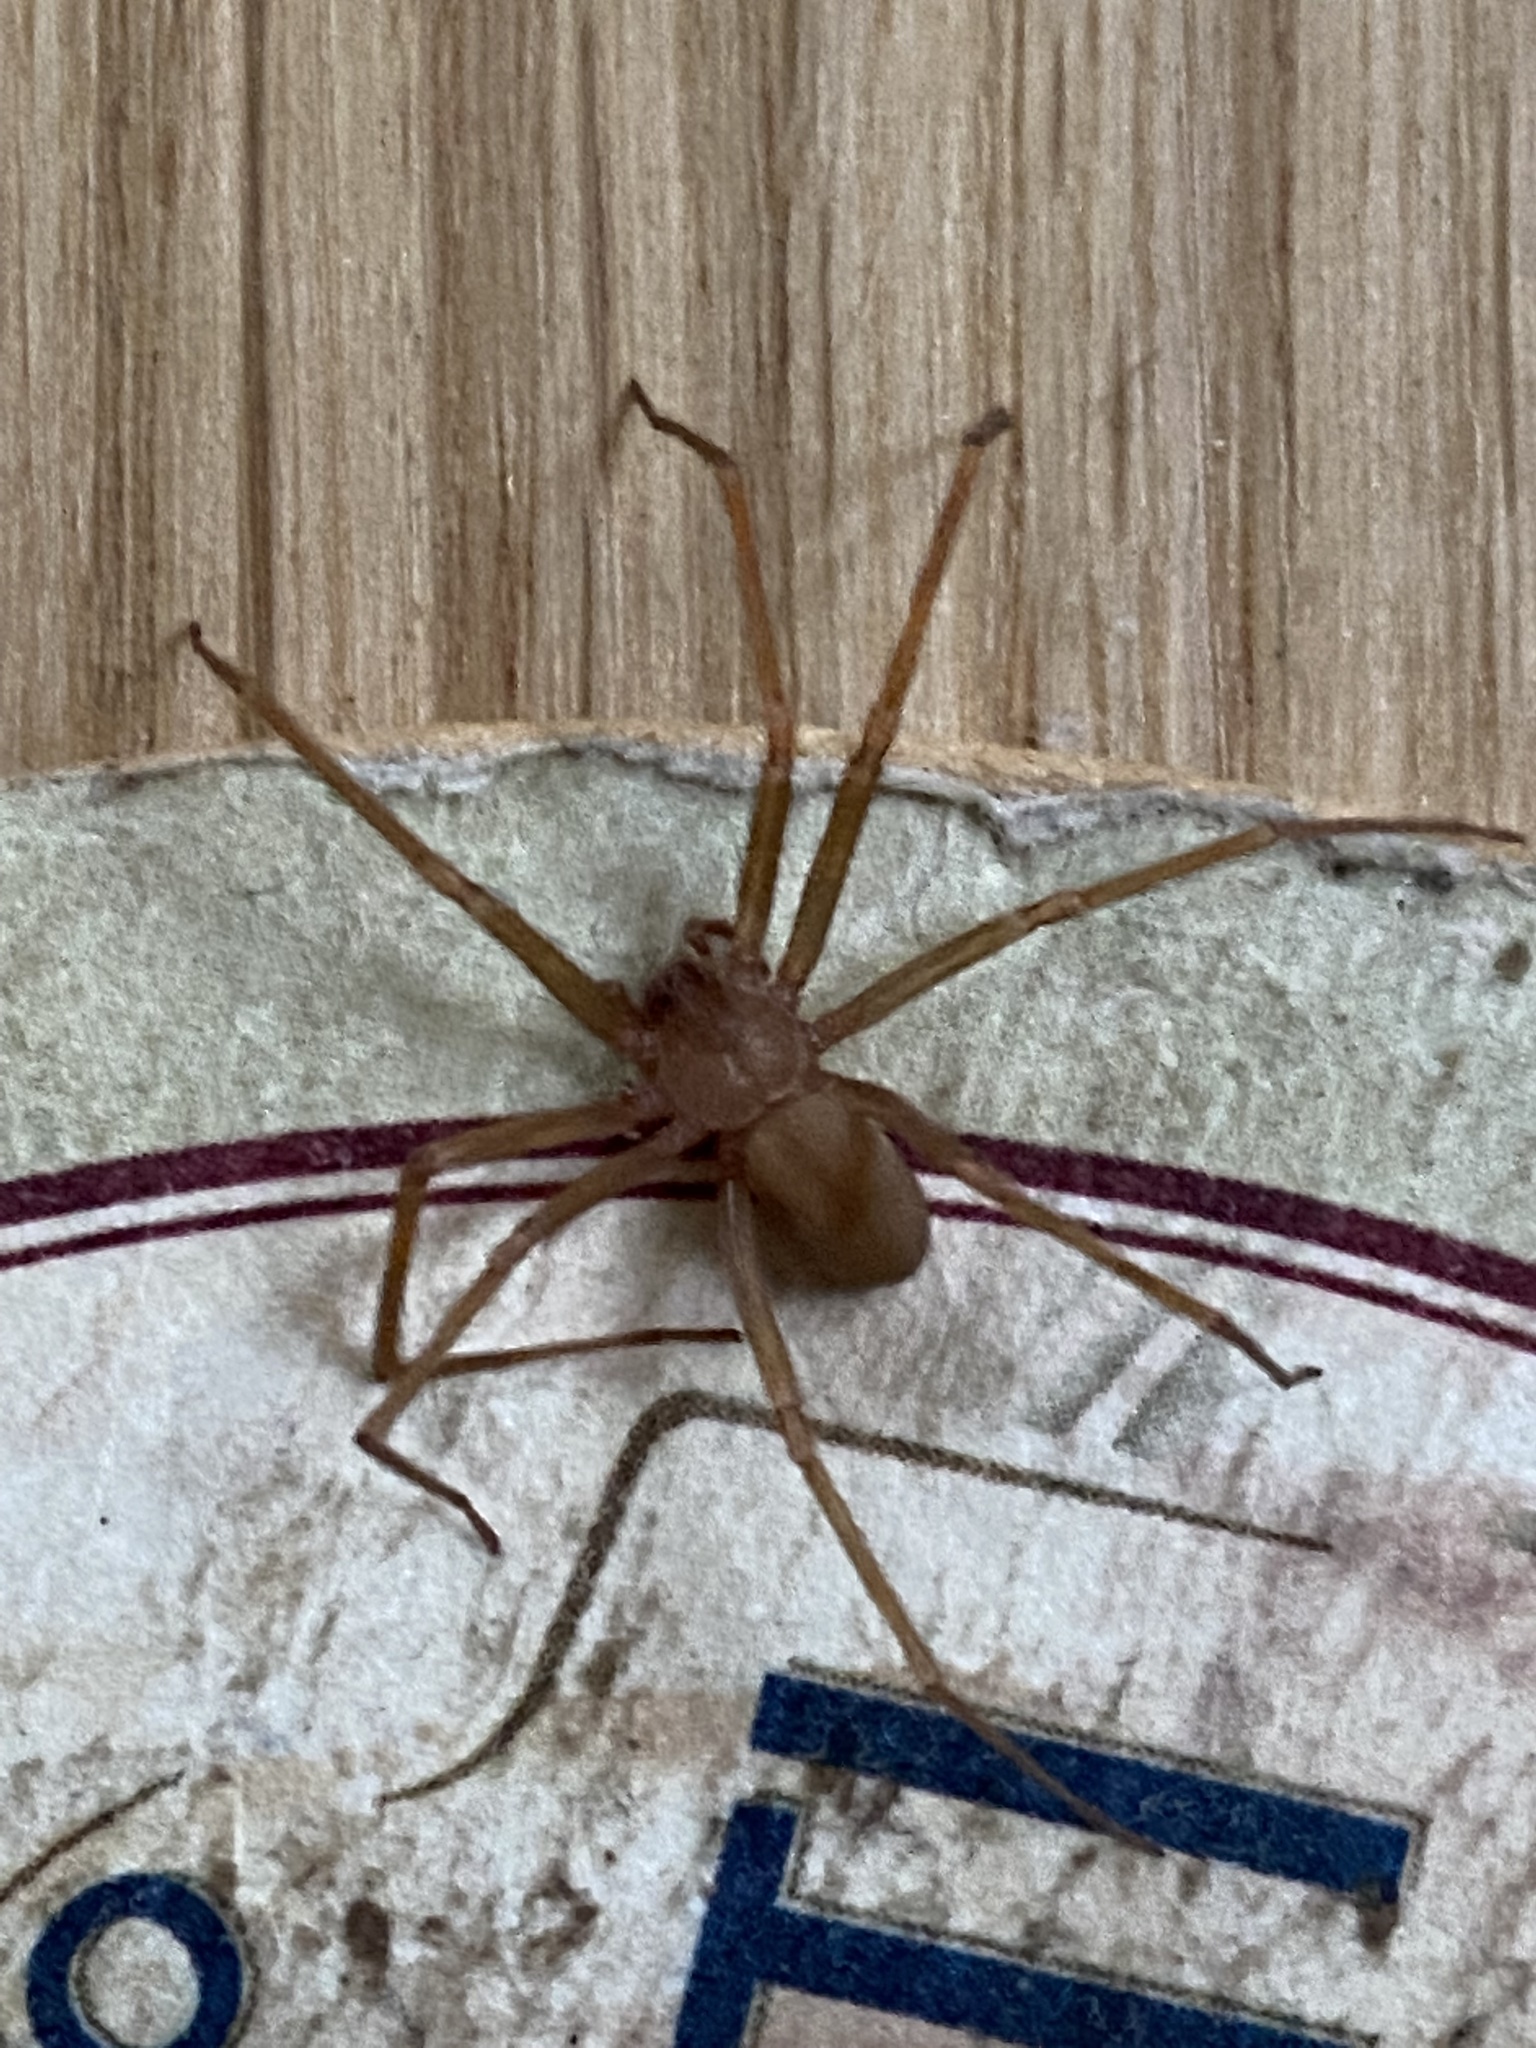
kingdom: Animalia
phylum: Arthropoda
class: Arachnida
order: Araneae
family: Sicariidae
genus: Loxosceles
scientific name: Loxosceles rufescens
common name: Mediterranean recluse spider
